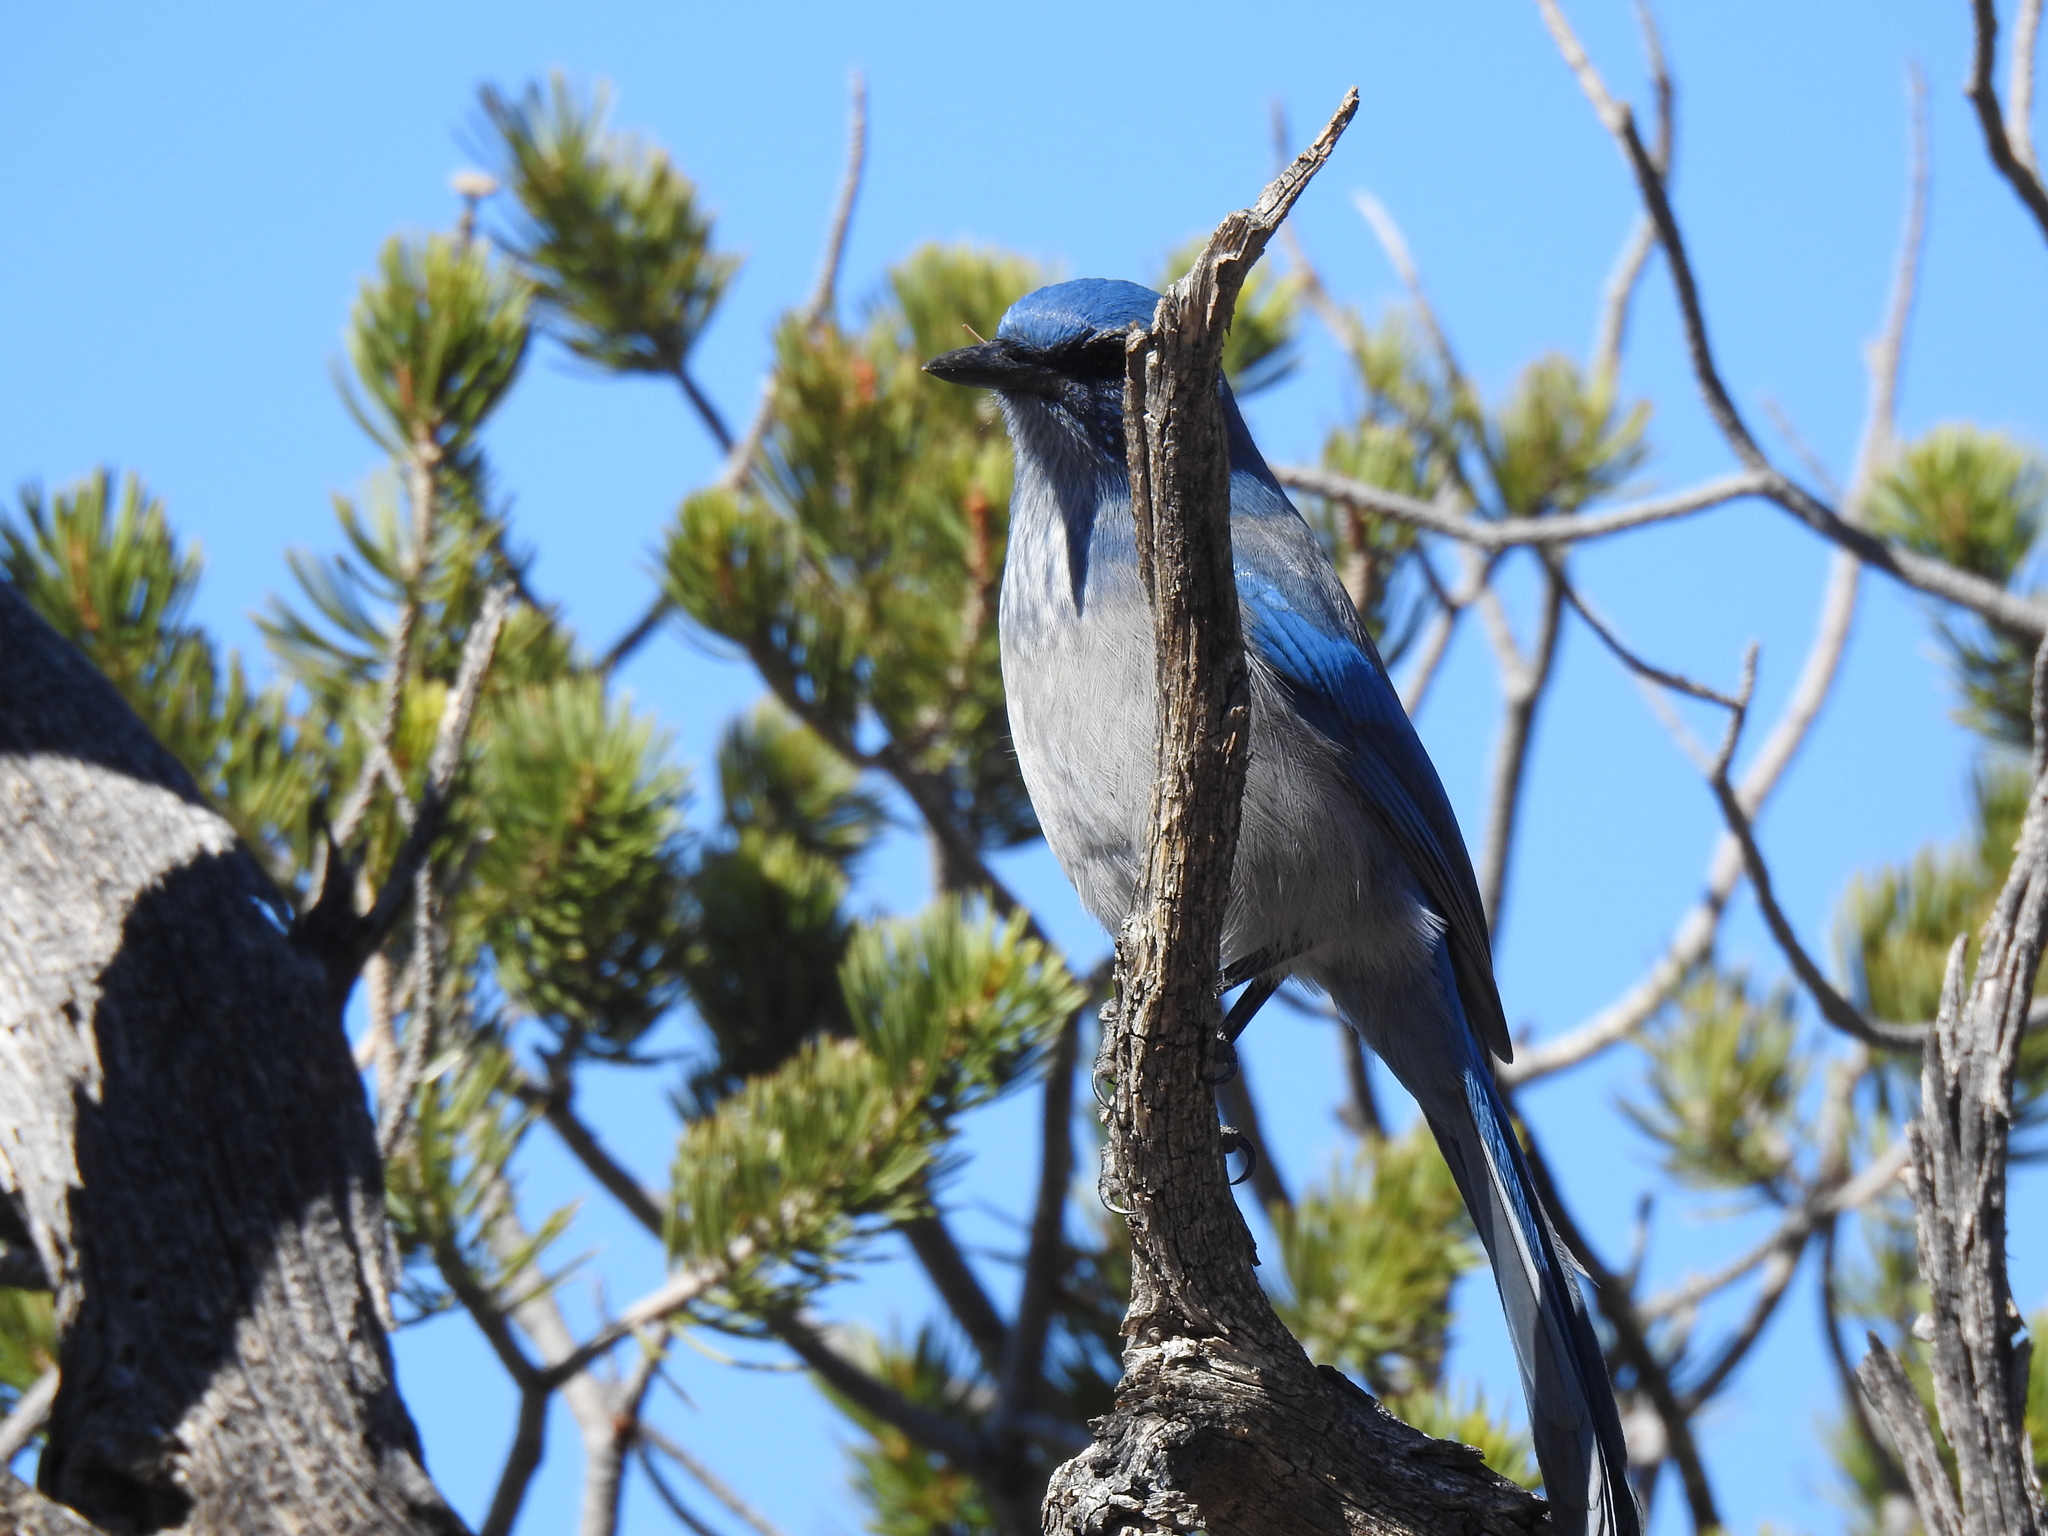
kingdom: Animalia
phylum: Chordata
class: Aves
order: Passeriformes
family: Corvidae
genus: Aphelocoma
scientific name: Aphelocoma woodhouseii
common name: Woodhouse's scrub-jay
